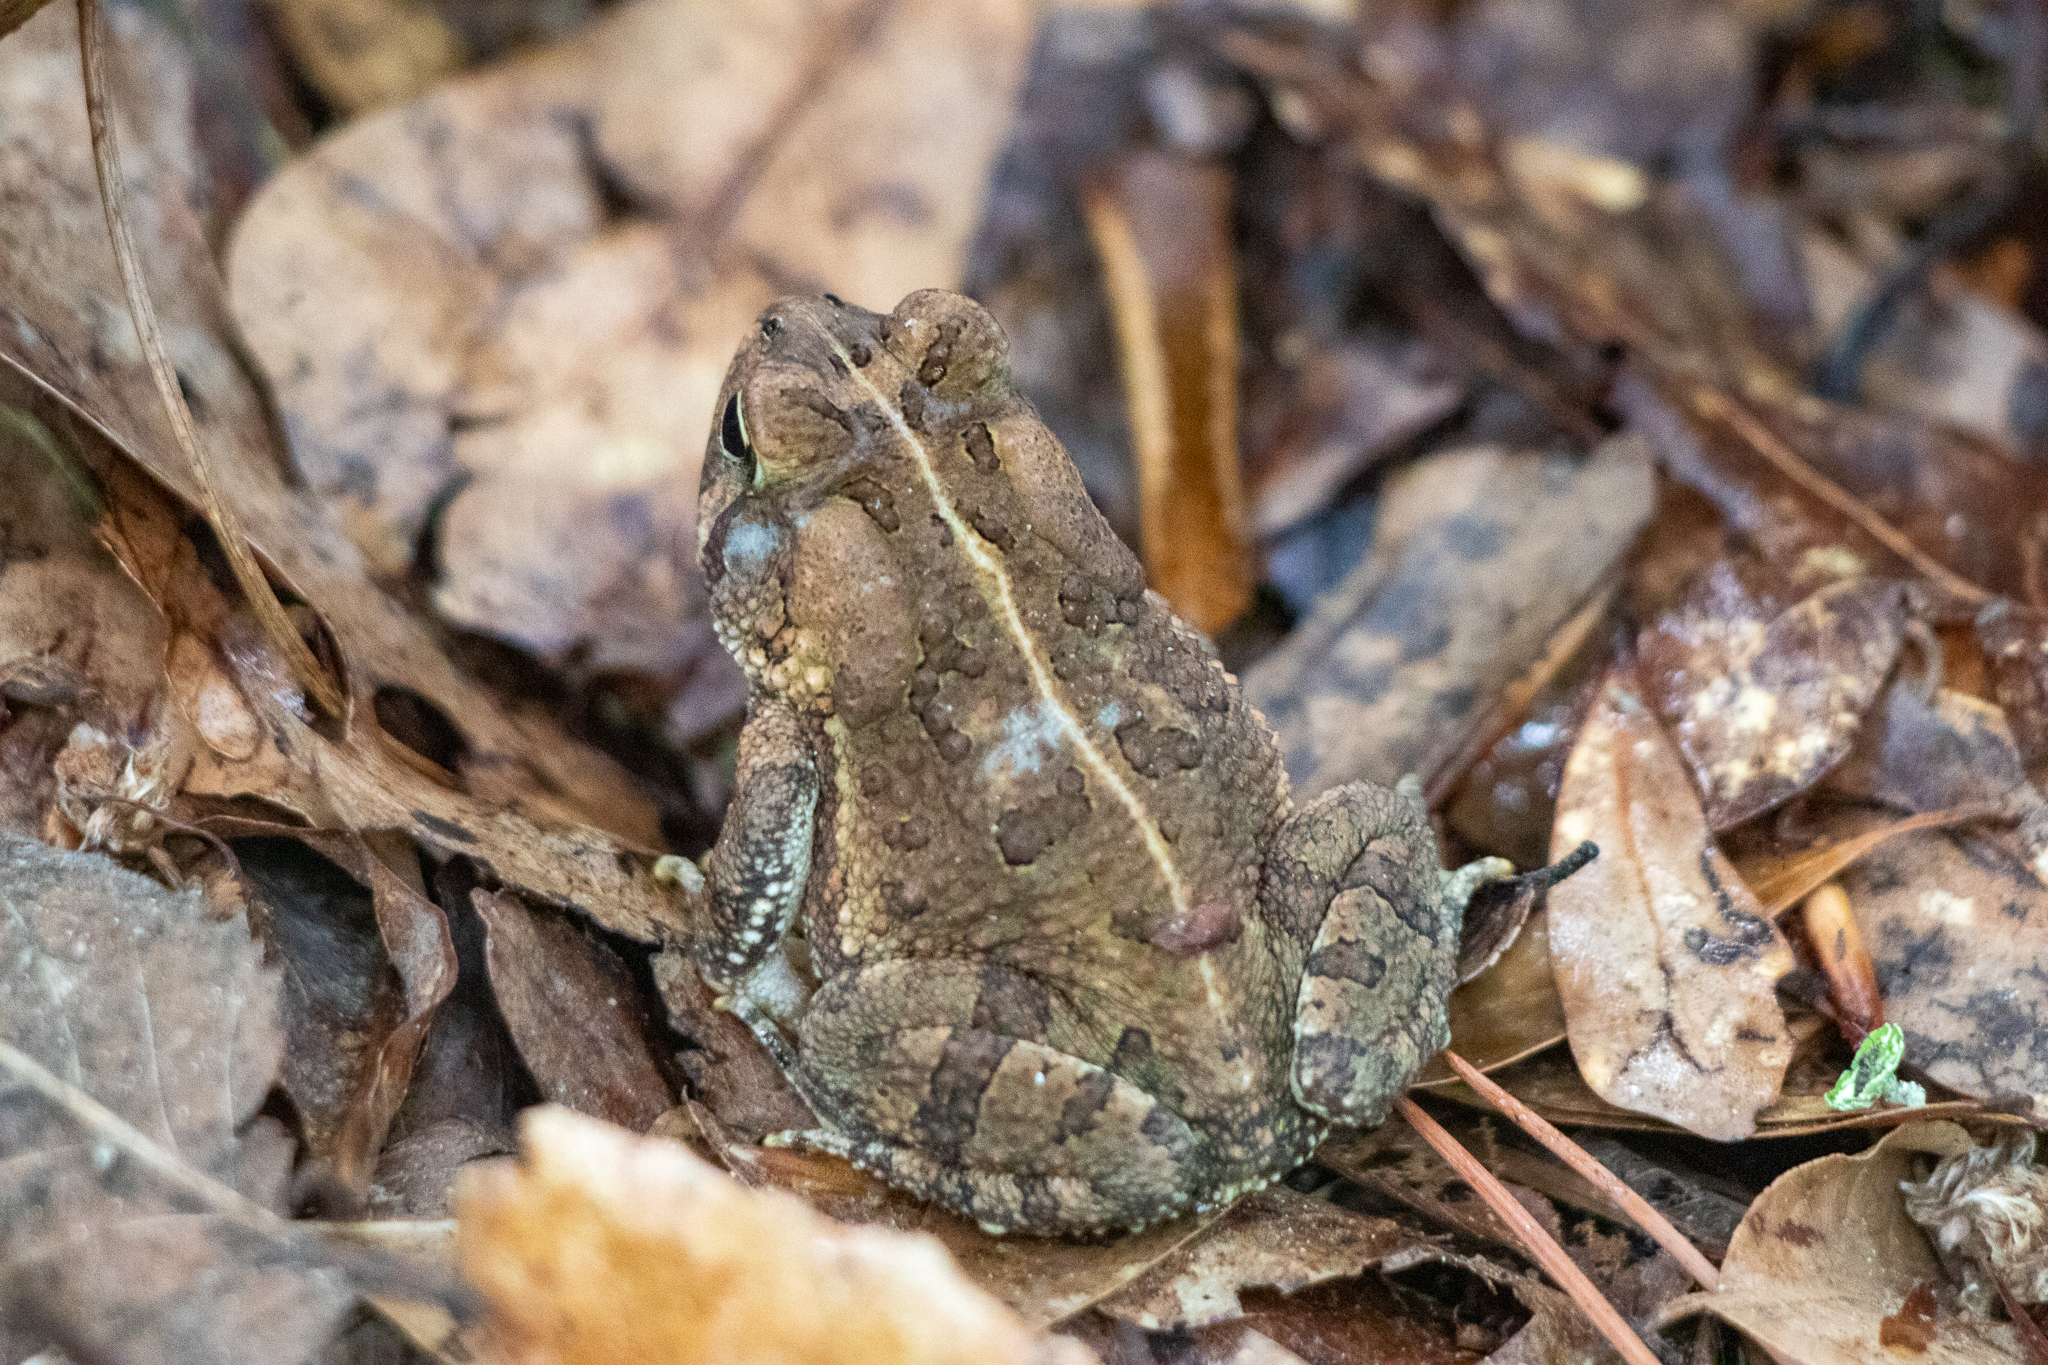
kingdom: Animalia
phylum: Chordata
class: Amphibia
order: Anura
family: Bufonidae
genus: Anaxyrus
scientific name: Anaxyrus fowleri
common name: Fowler's toad
